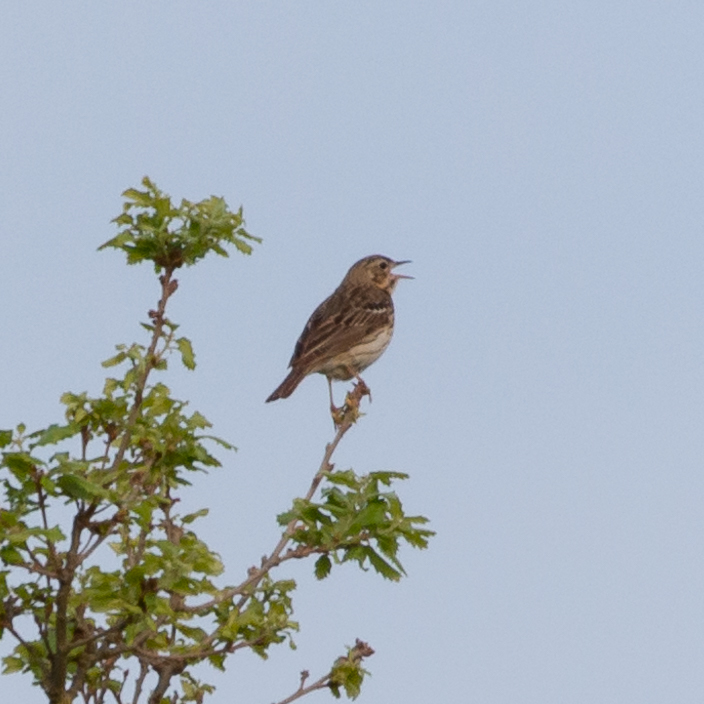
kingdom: Animalia
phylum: Chordata
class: Aves
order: Passeriformes
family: Motacillidae
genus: Anthus
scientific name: Anthus trivialis
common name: Tree pipit
